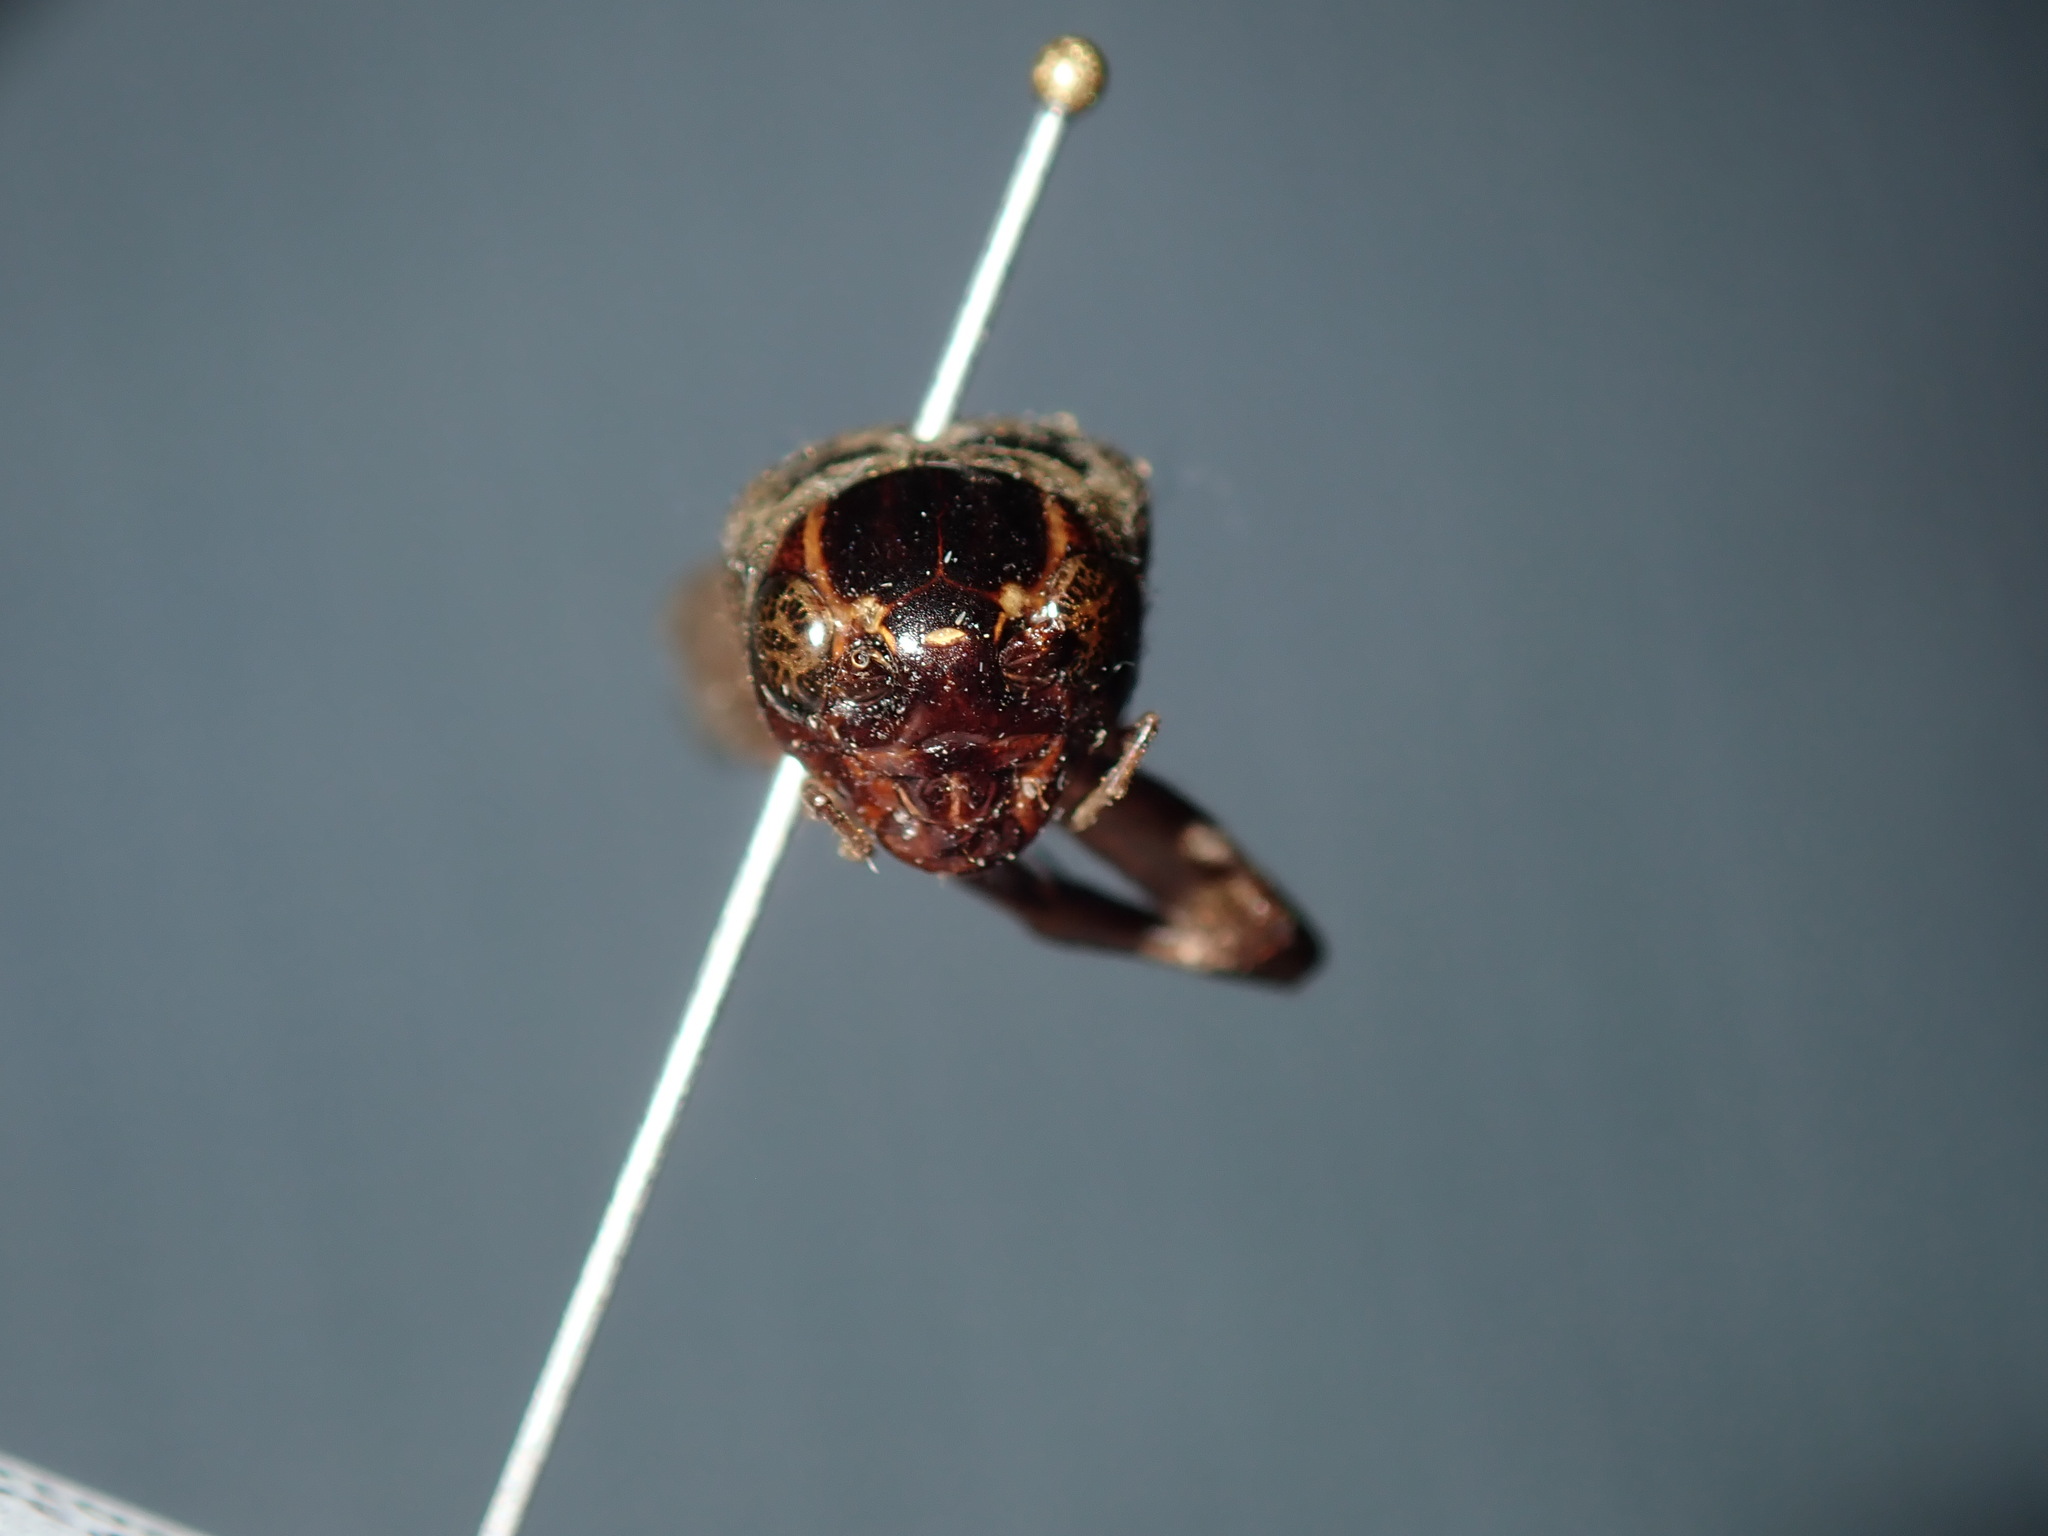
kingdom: Animalia
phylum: Arthropoda
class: Insecta
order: Orthoptera
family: Gryllidae
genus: Teleogryllus
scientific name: Teleogryllus commodus
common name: Black field cricket
